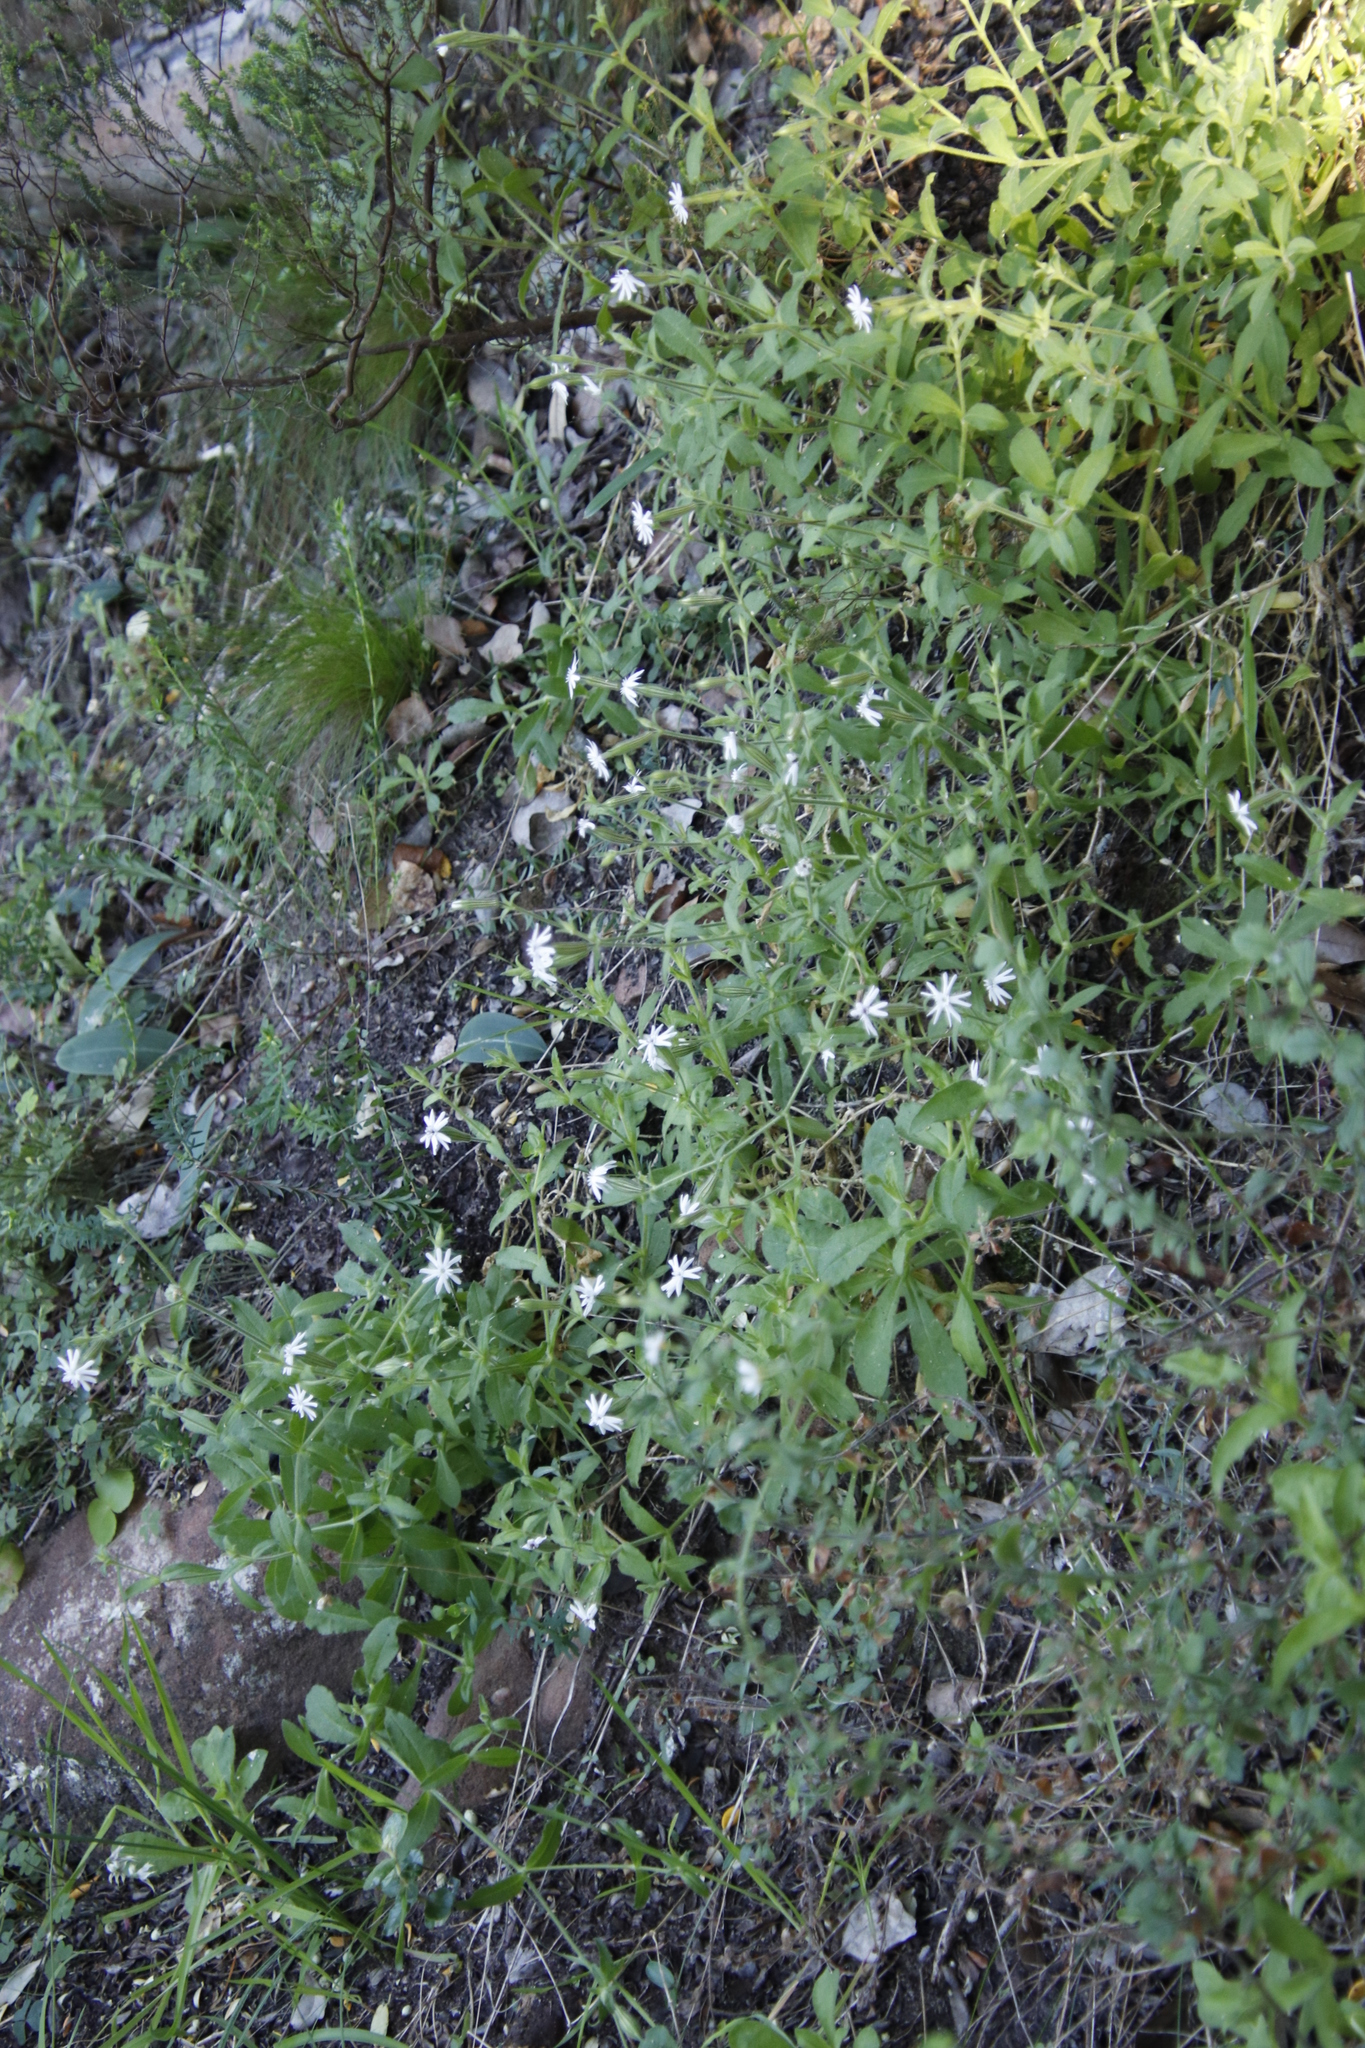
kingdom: Plantae
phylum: Tracheophyta
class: Magnoliopsida
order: Caryophyllales
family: Caryophyllaceae
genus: Silene
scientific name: Silene undulata
